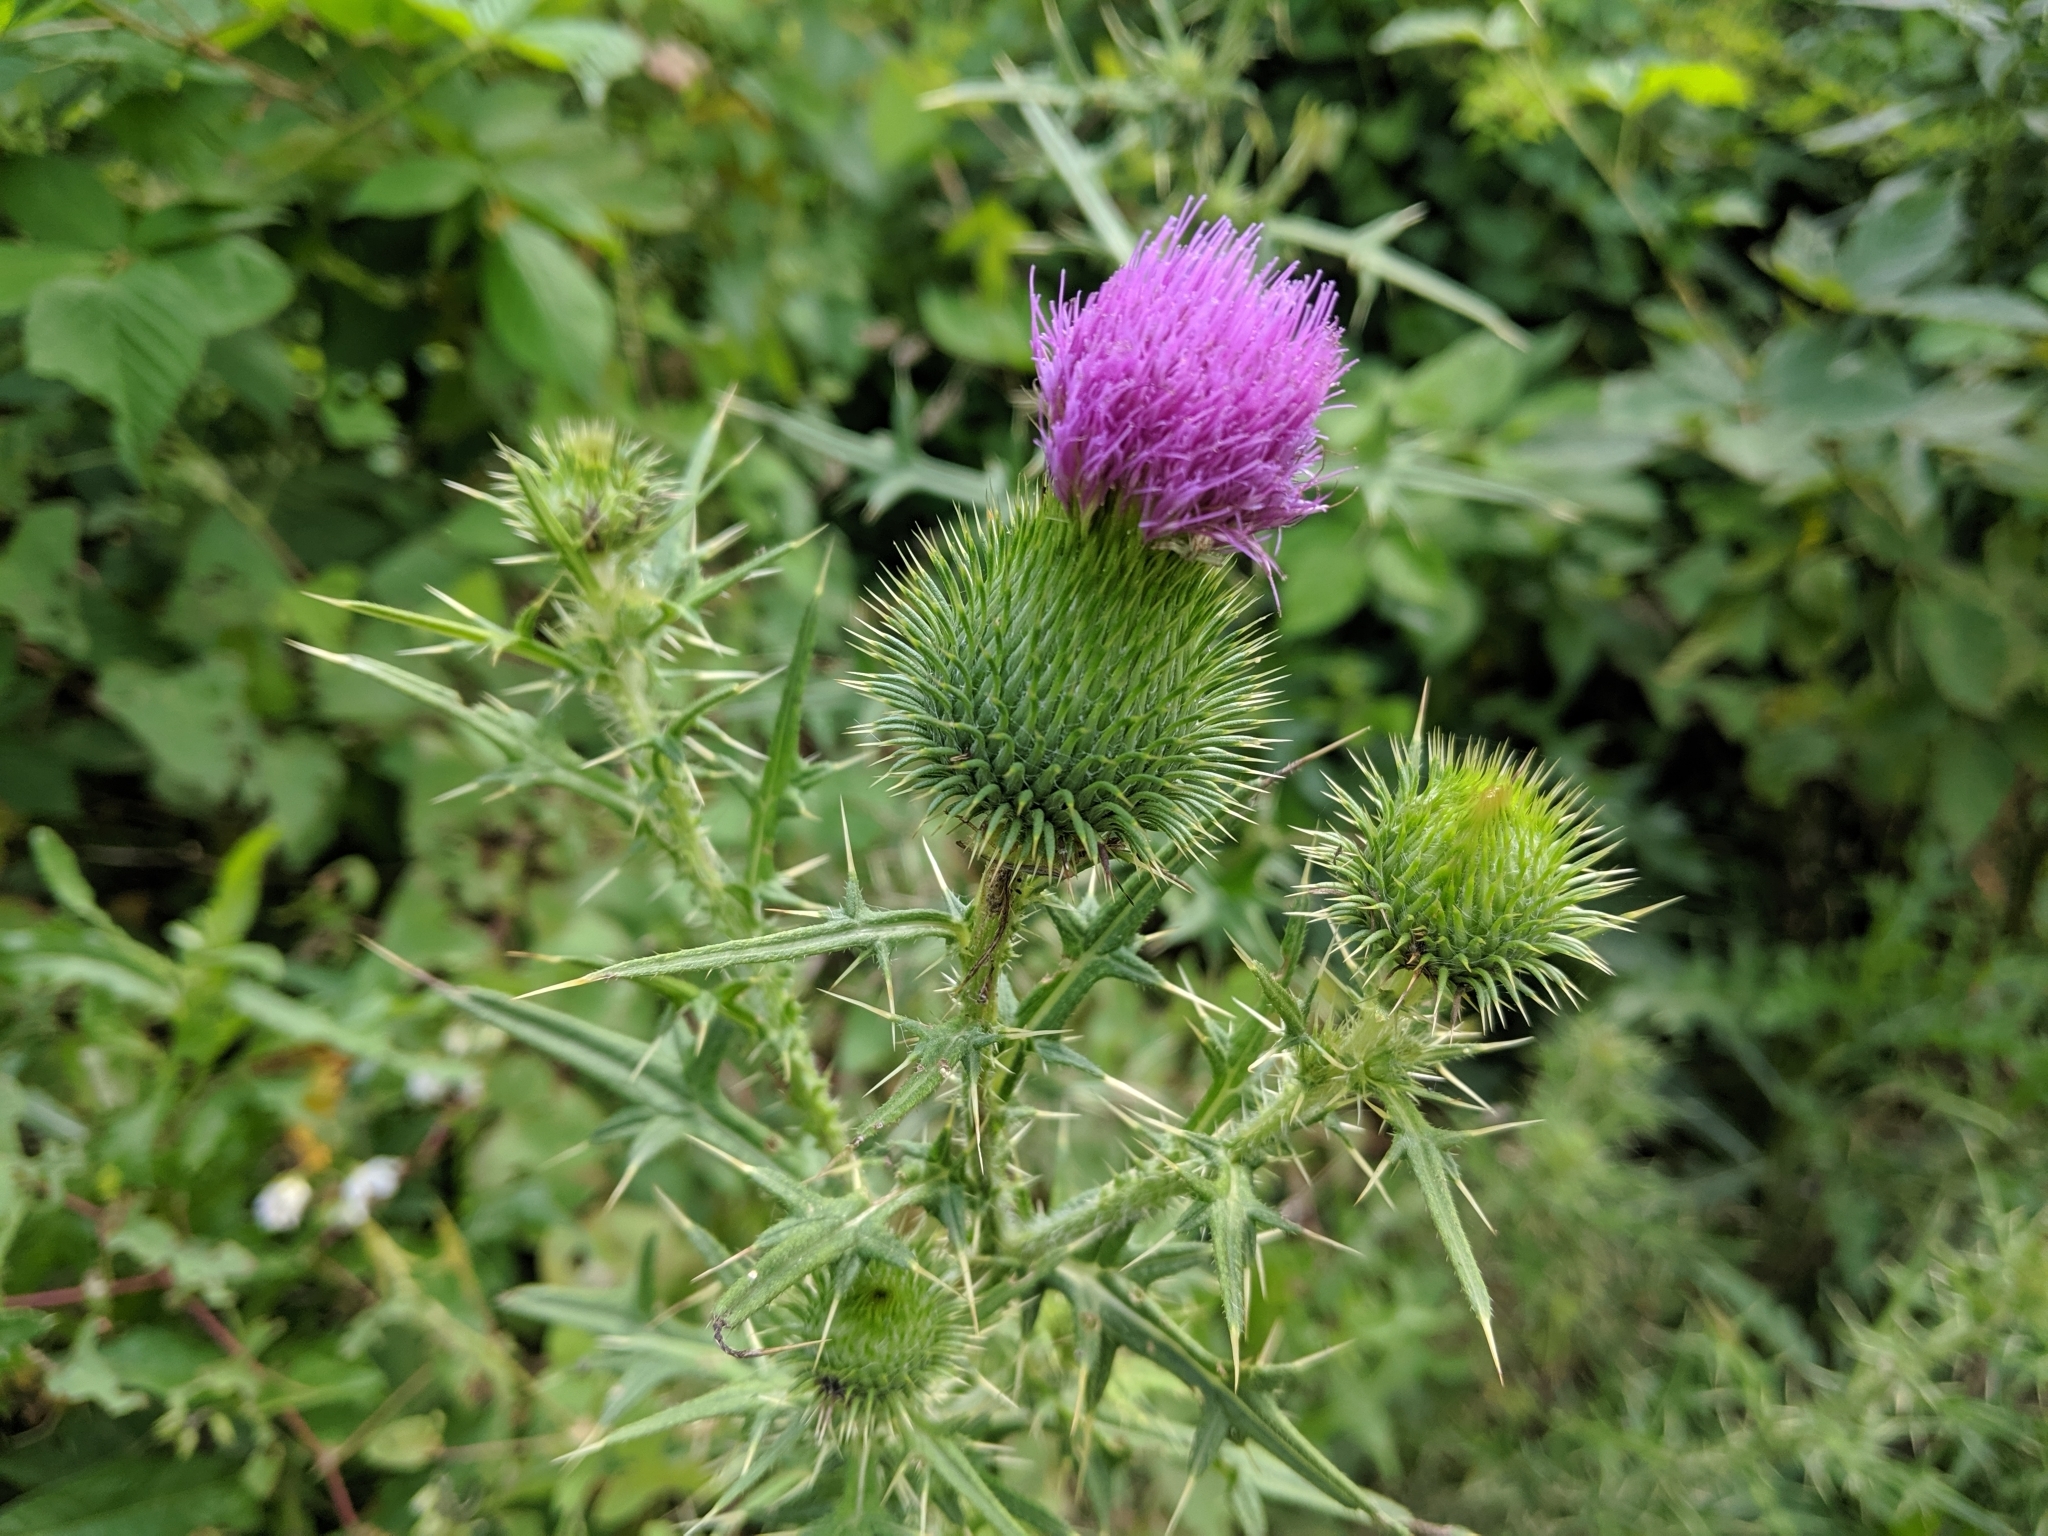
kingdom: Plantae
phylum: Tracheophyta
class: Magnoliopsida
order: Asterales
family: Asteraceae
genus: Cirsium
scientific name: Cirsium vulgare
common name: Bull thistle
